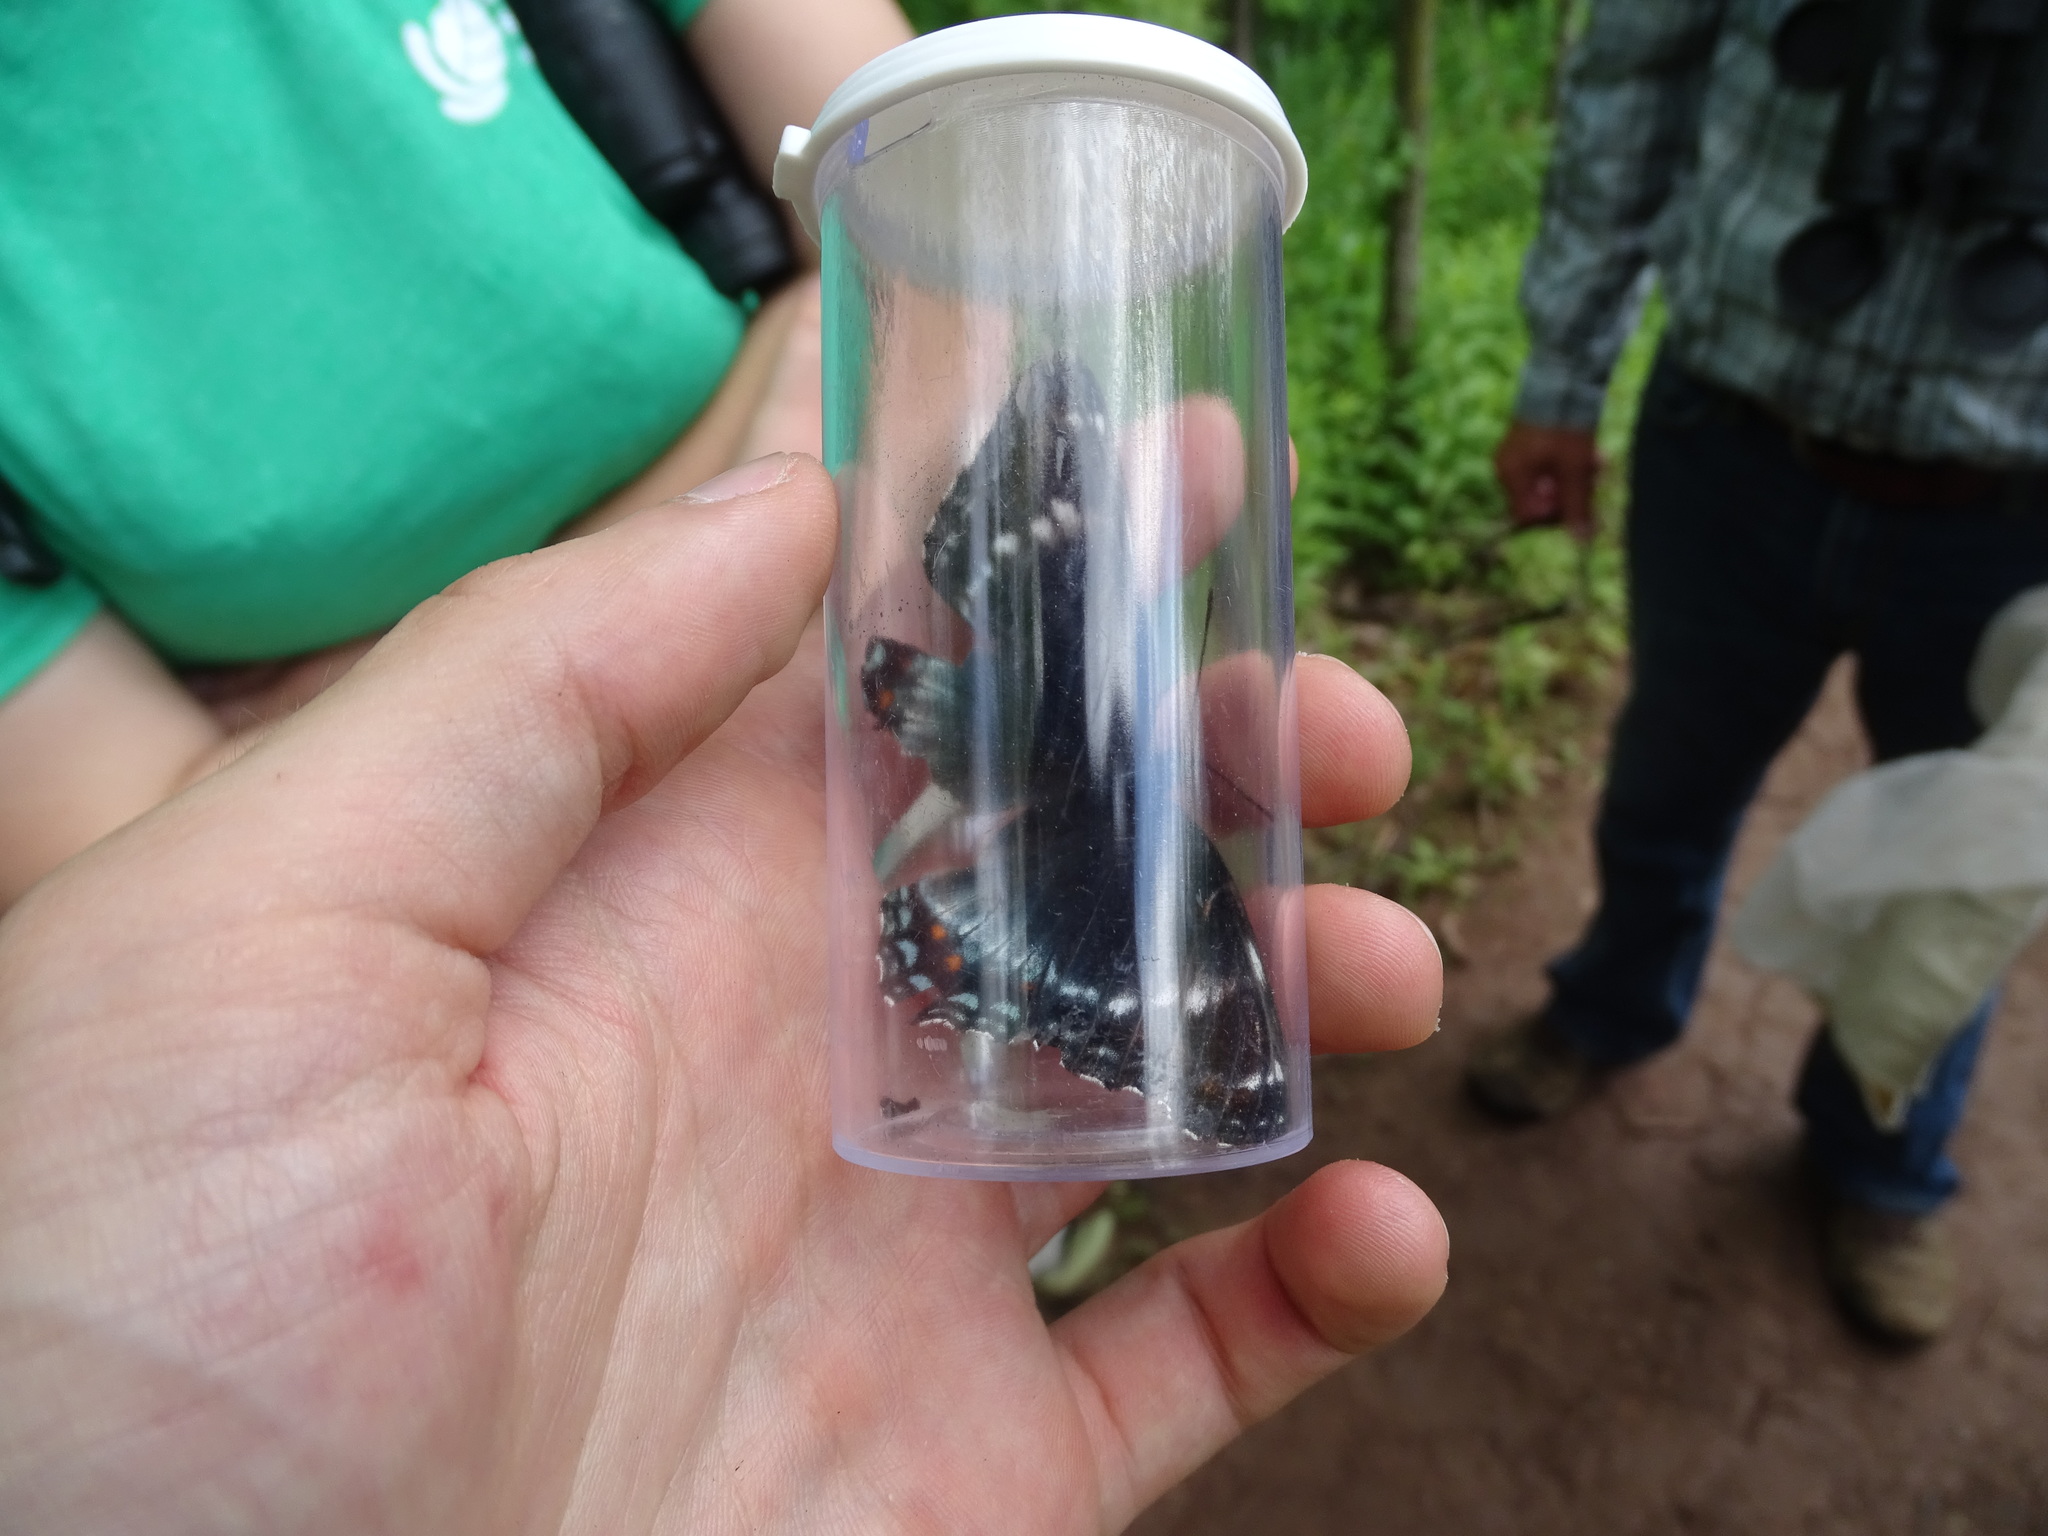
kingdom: Animalia
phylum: Arthropoda
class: Insecta
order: Lepidoptera
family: Nymphalidae
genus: Limenitis
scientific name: Limenitis
